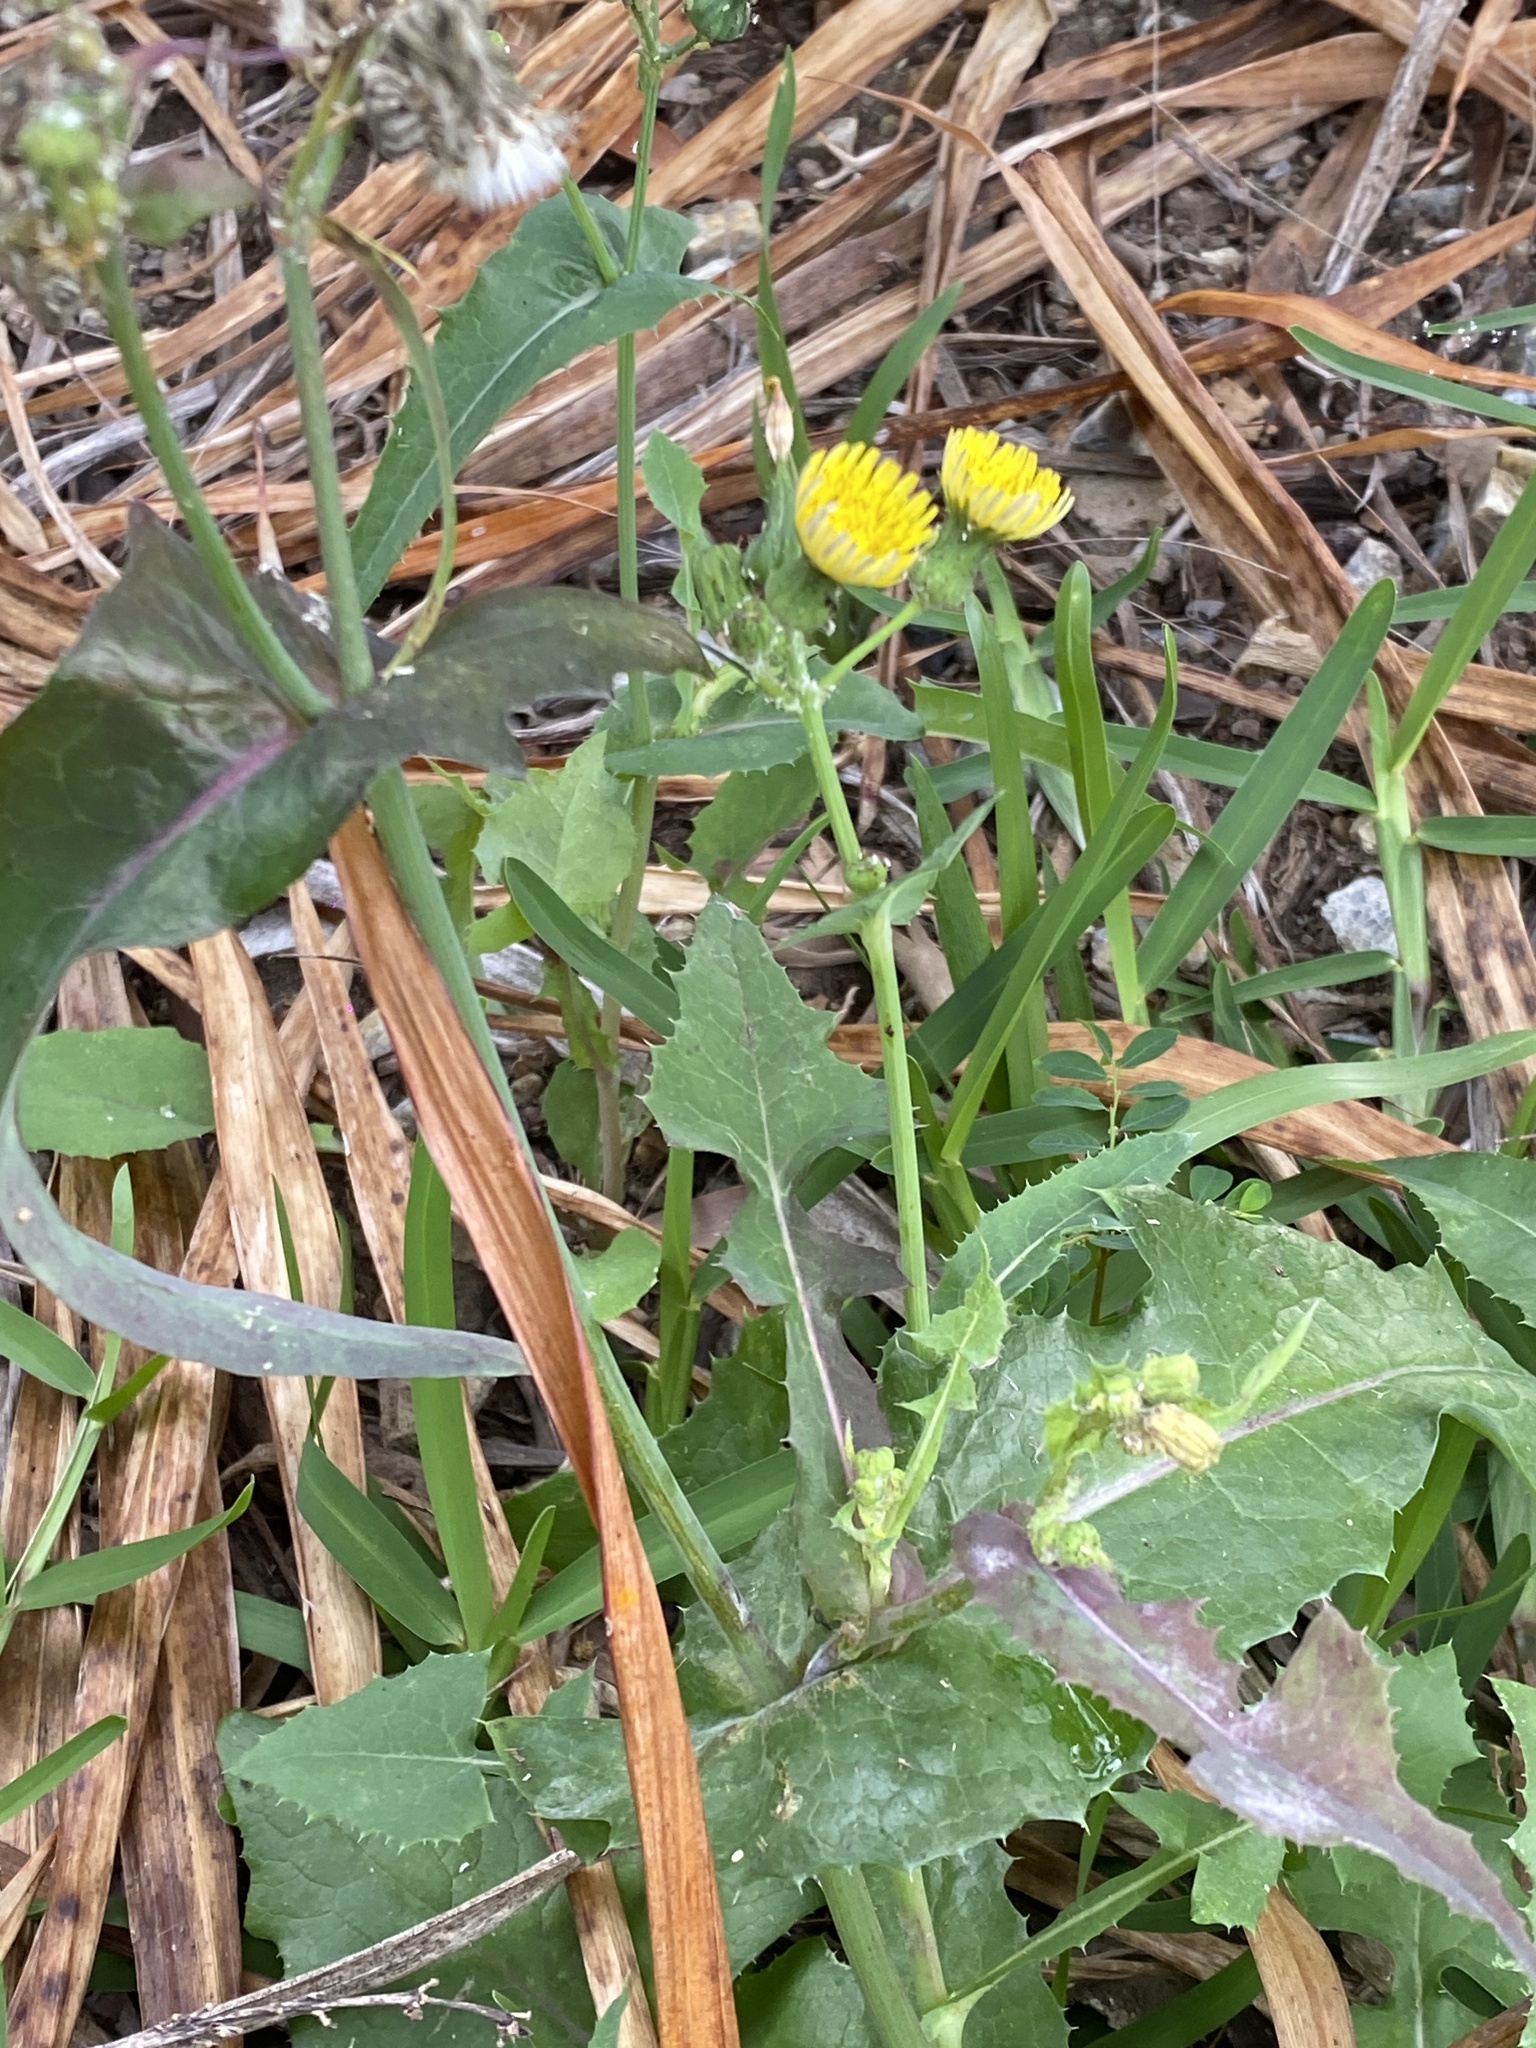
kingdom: Plantae
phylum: Tracheophyta
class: Magnoliopsida
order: Asterales
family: Asteraceae
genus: Sonchus
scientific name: Sonchus oleraceus
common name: Common sowthistle
